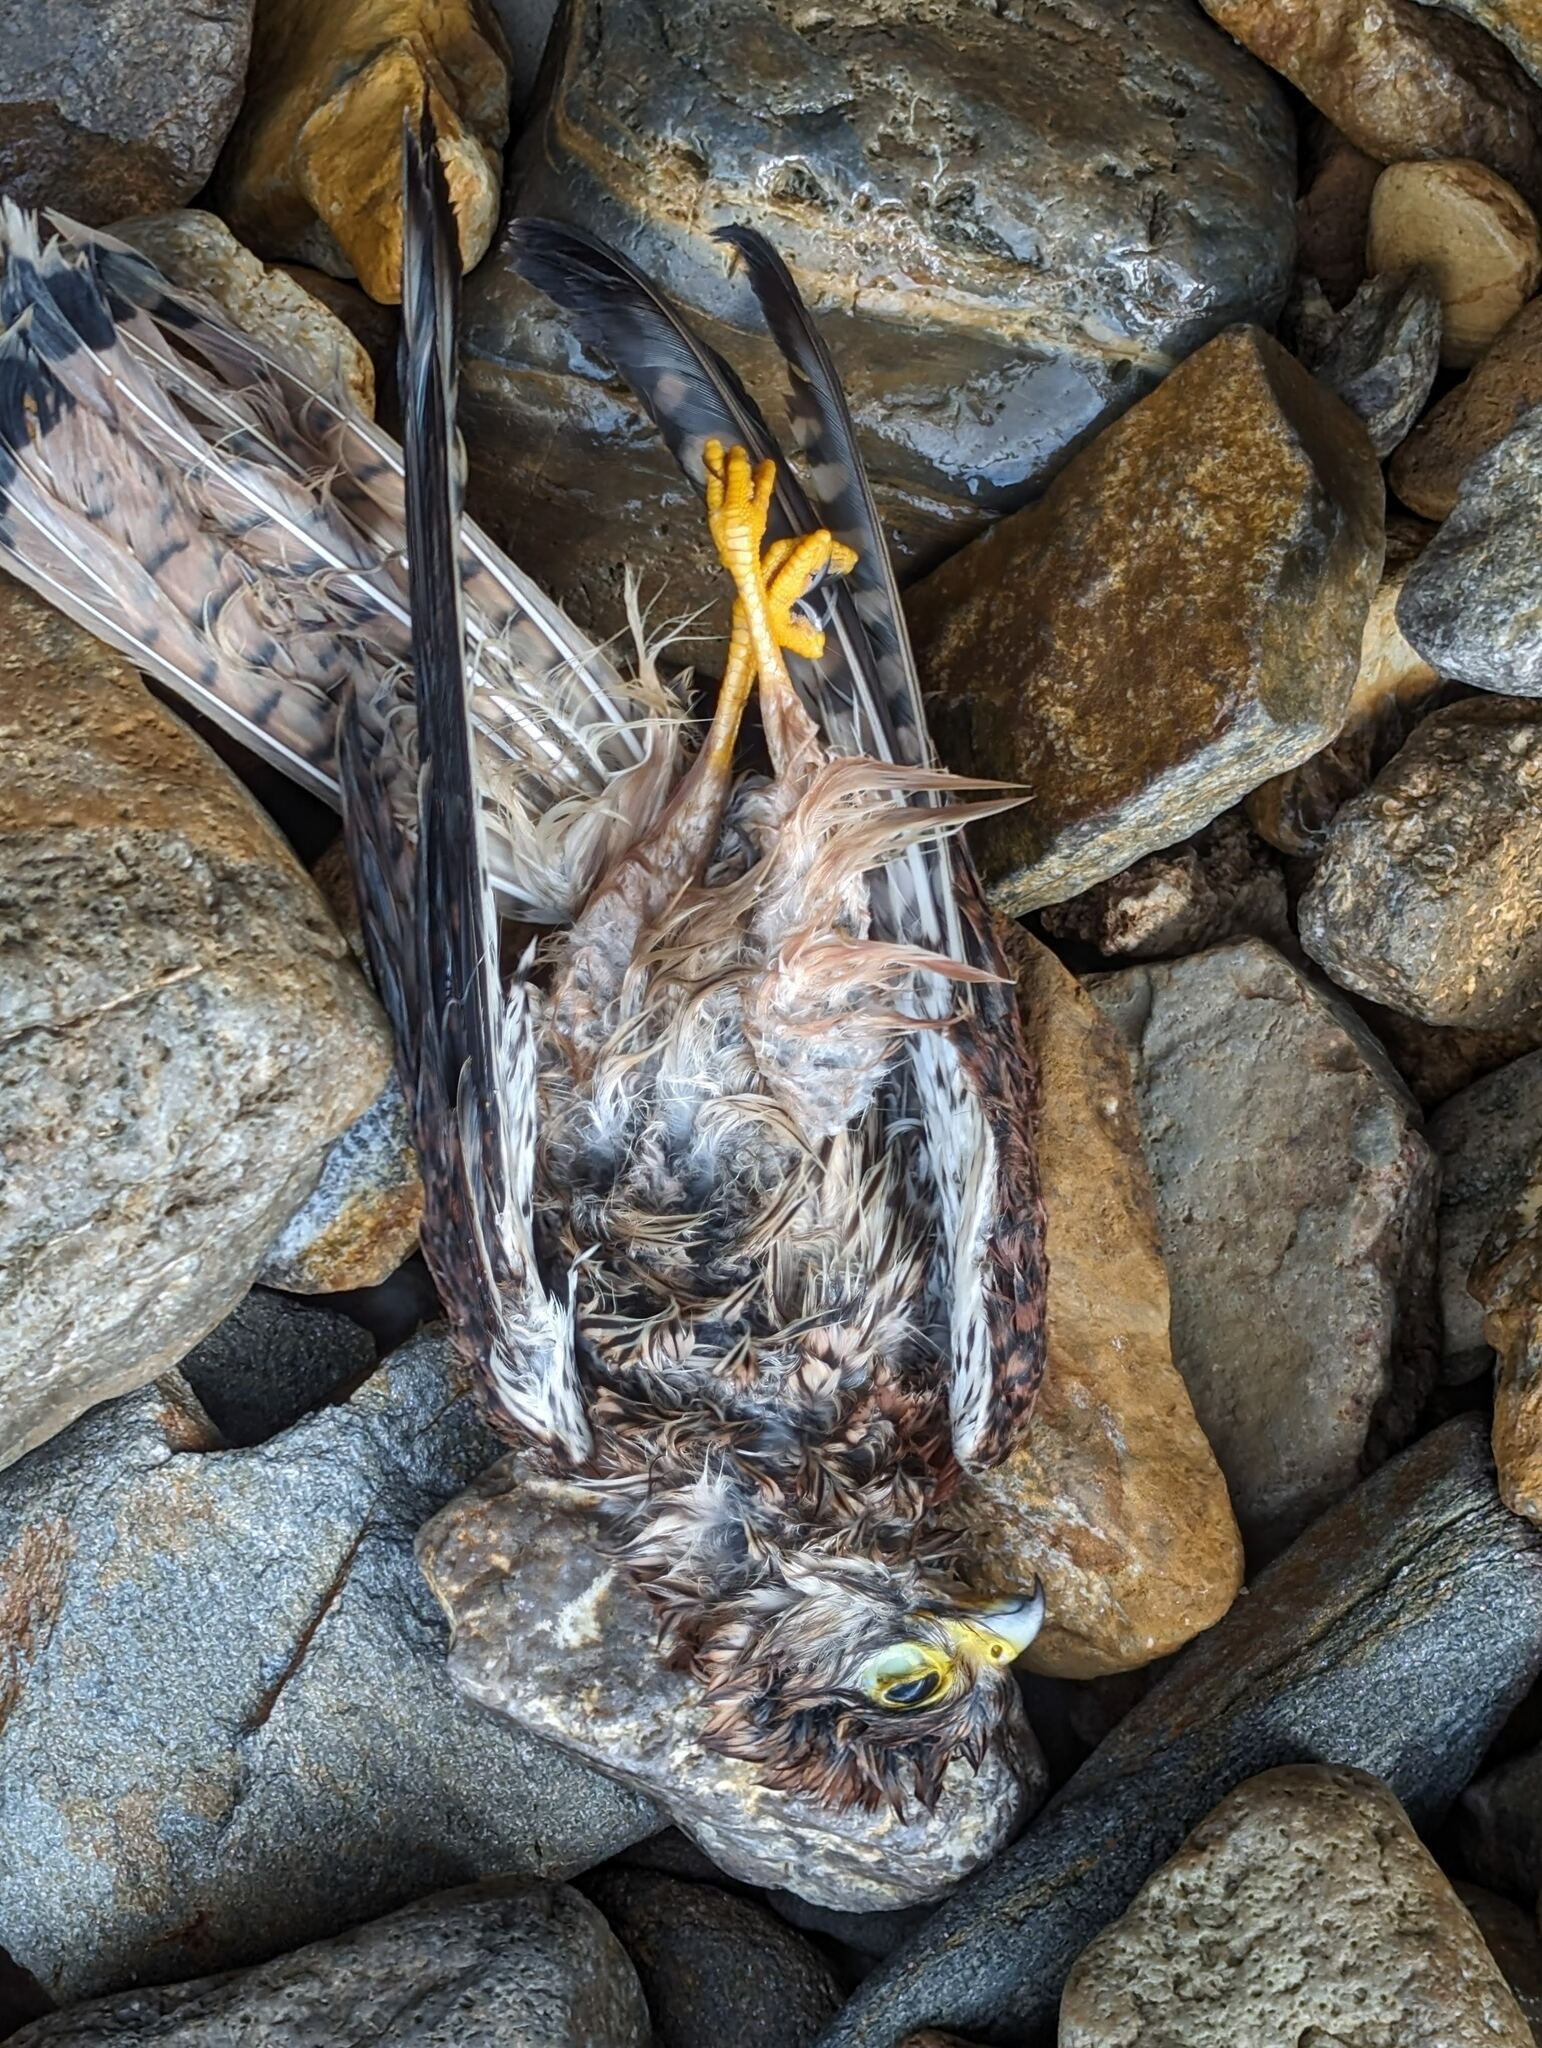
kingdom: Animalia
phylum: Chordata
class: Aves
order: Falconiformes
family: Falconidae
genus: Falco
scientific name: Falco tinnunculus
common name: Common kestrel
